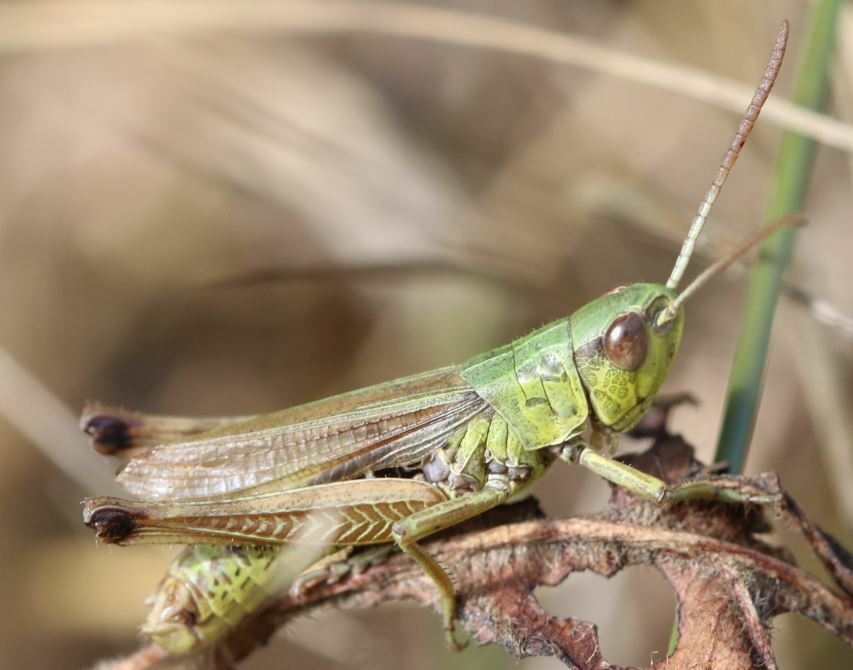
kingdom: Animalia
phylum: Arthropoda
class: Insecta
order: Orthoptera
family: Acrididae
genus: Pseudochorthippus
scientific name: Pseudochorthippus parallelus
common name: Meadow grasshopper
